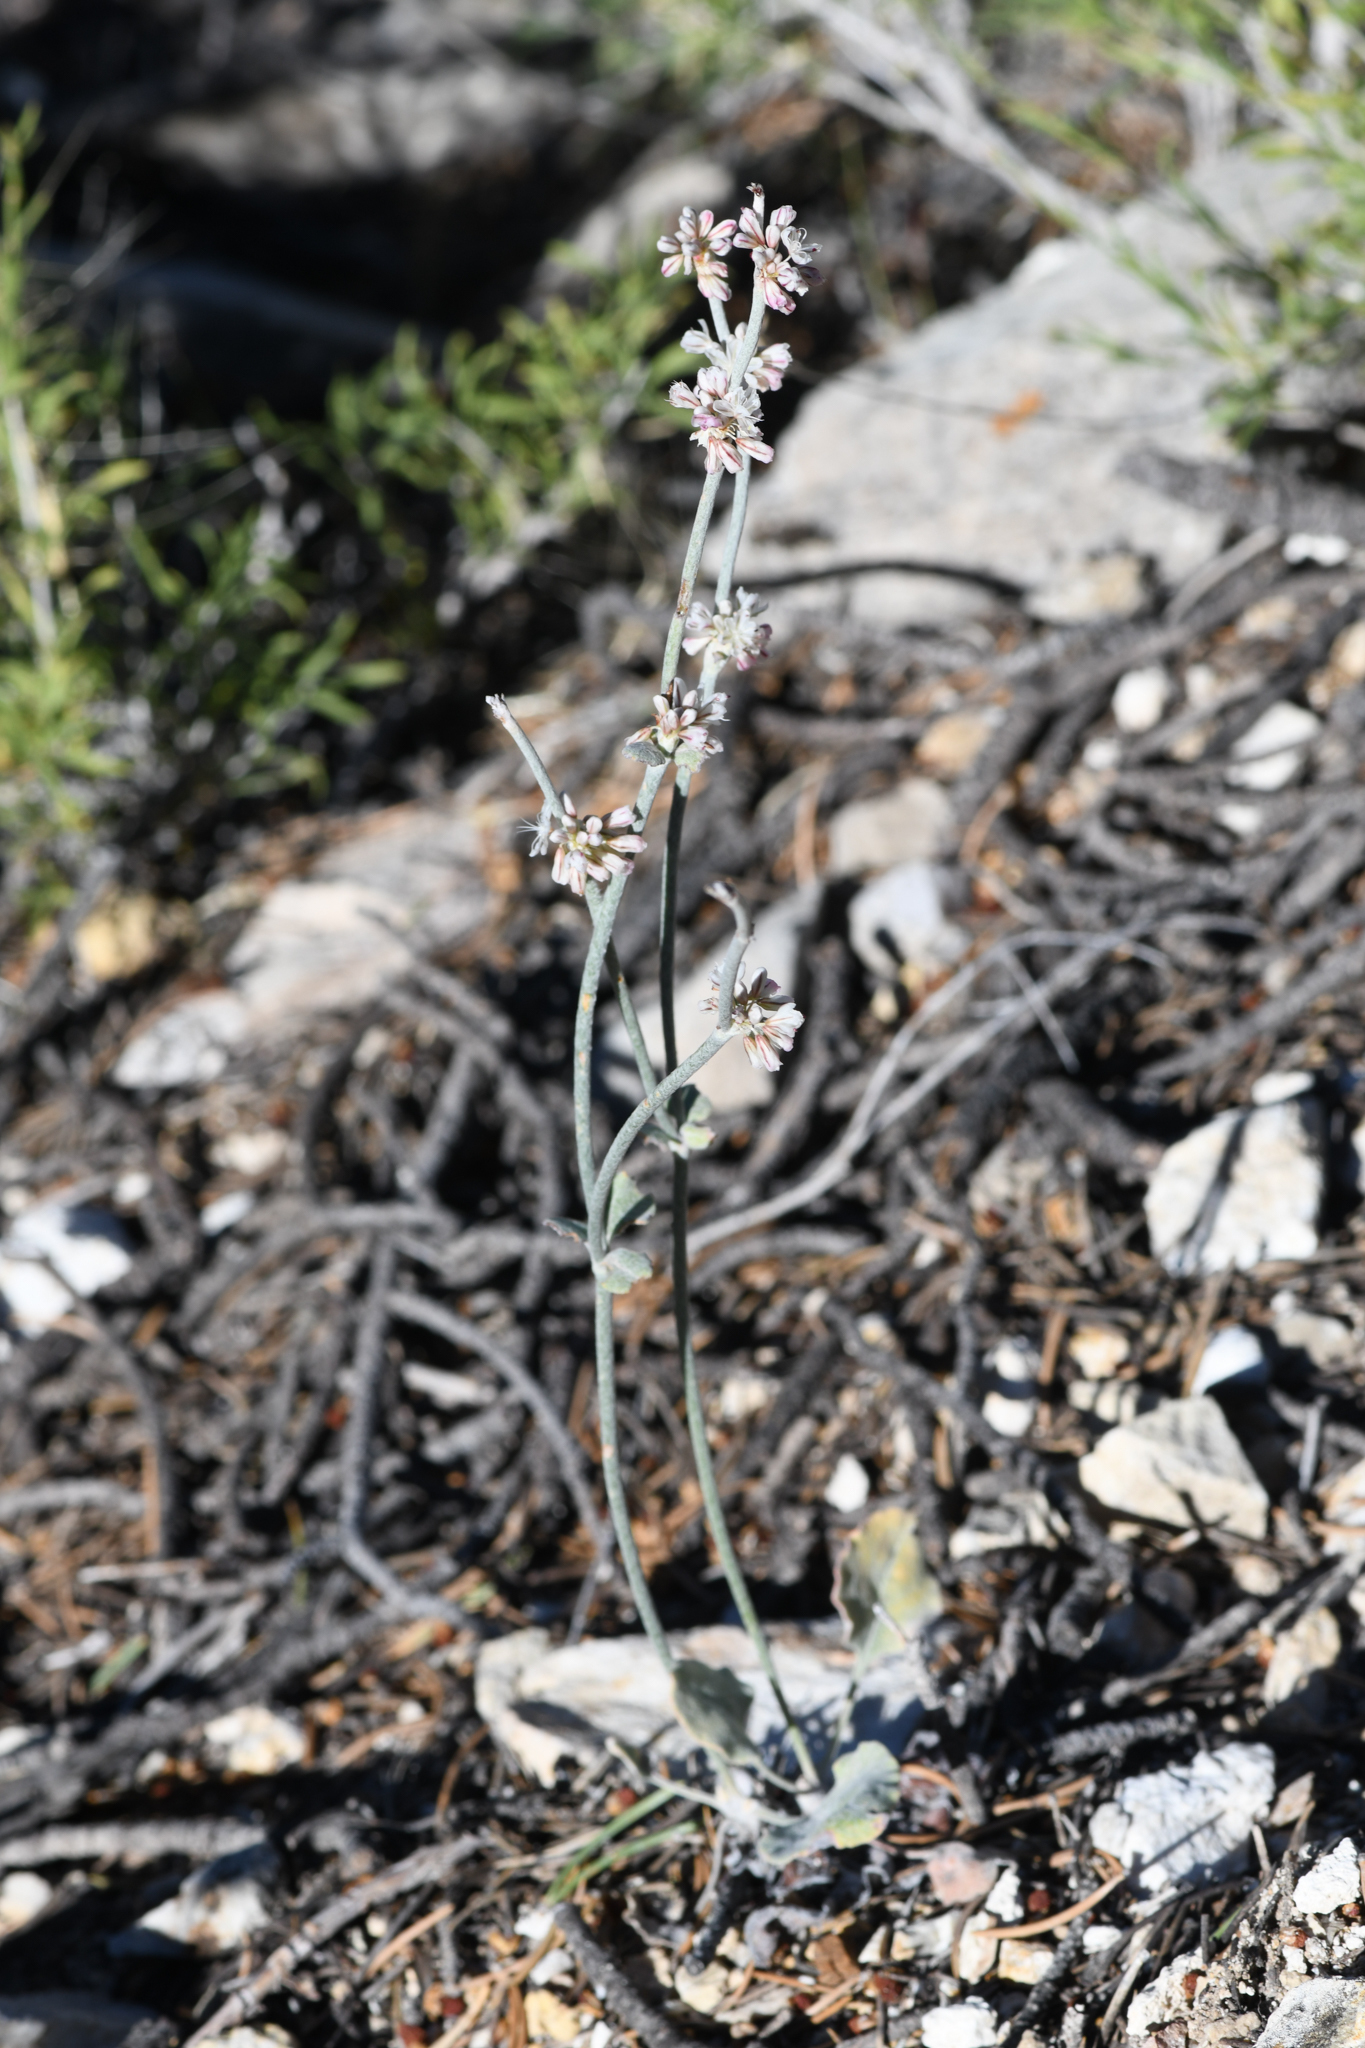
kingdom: Plantae
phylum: Tracheophyta
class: Magnoliopsida
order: Caryophyllales
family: Polygonaceae
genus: Eriogonum
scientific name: Eriogonum panamintense
